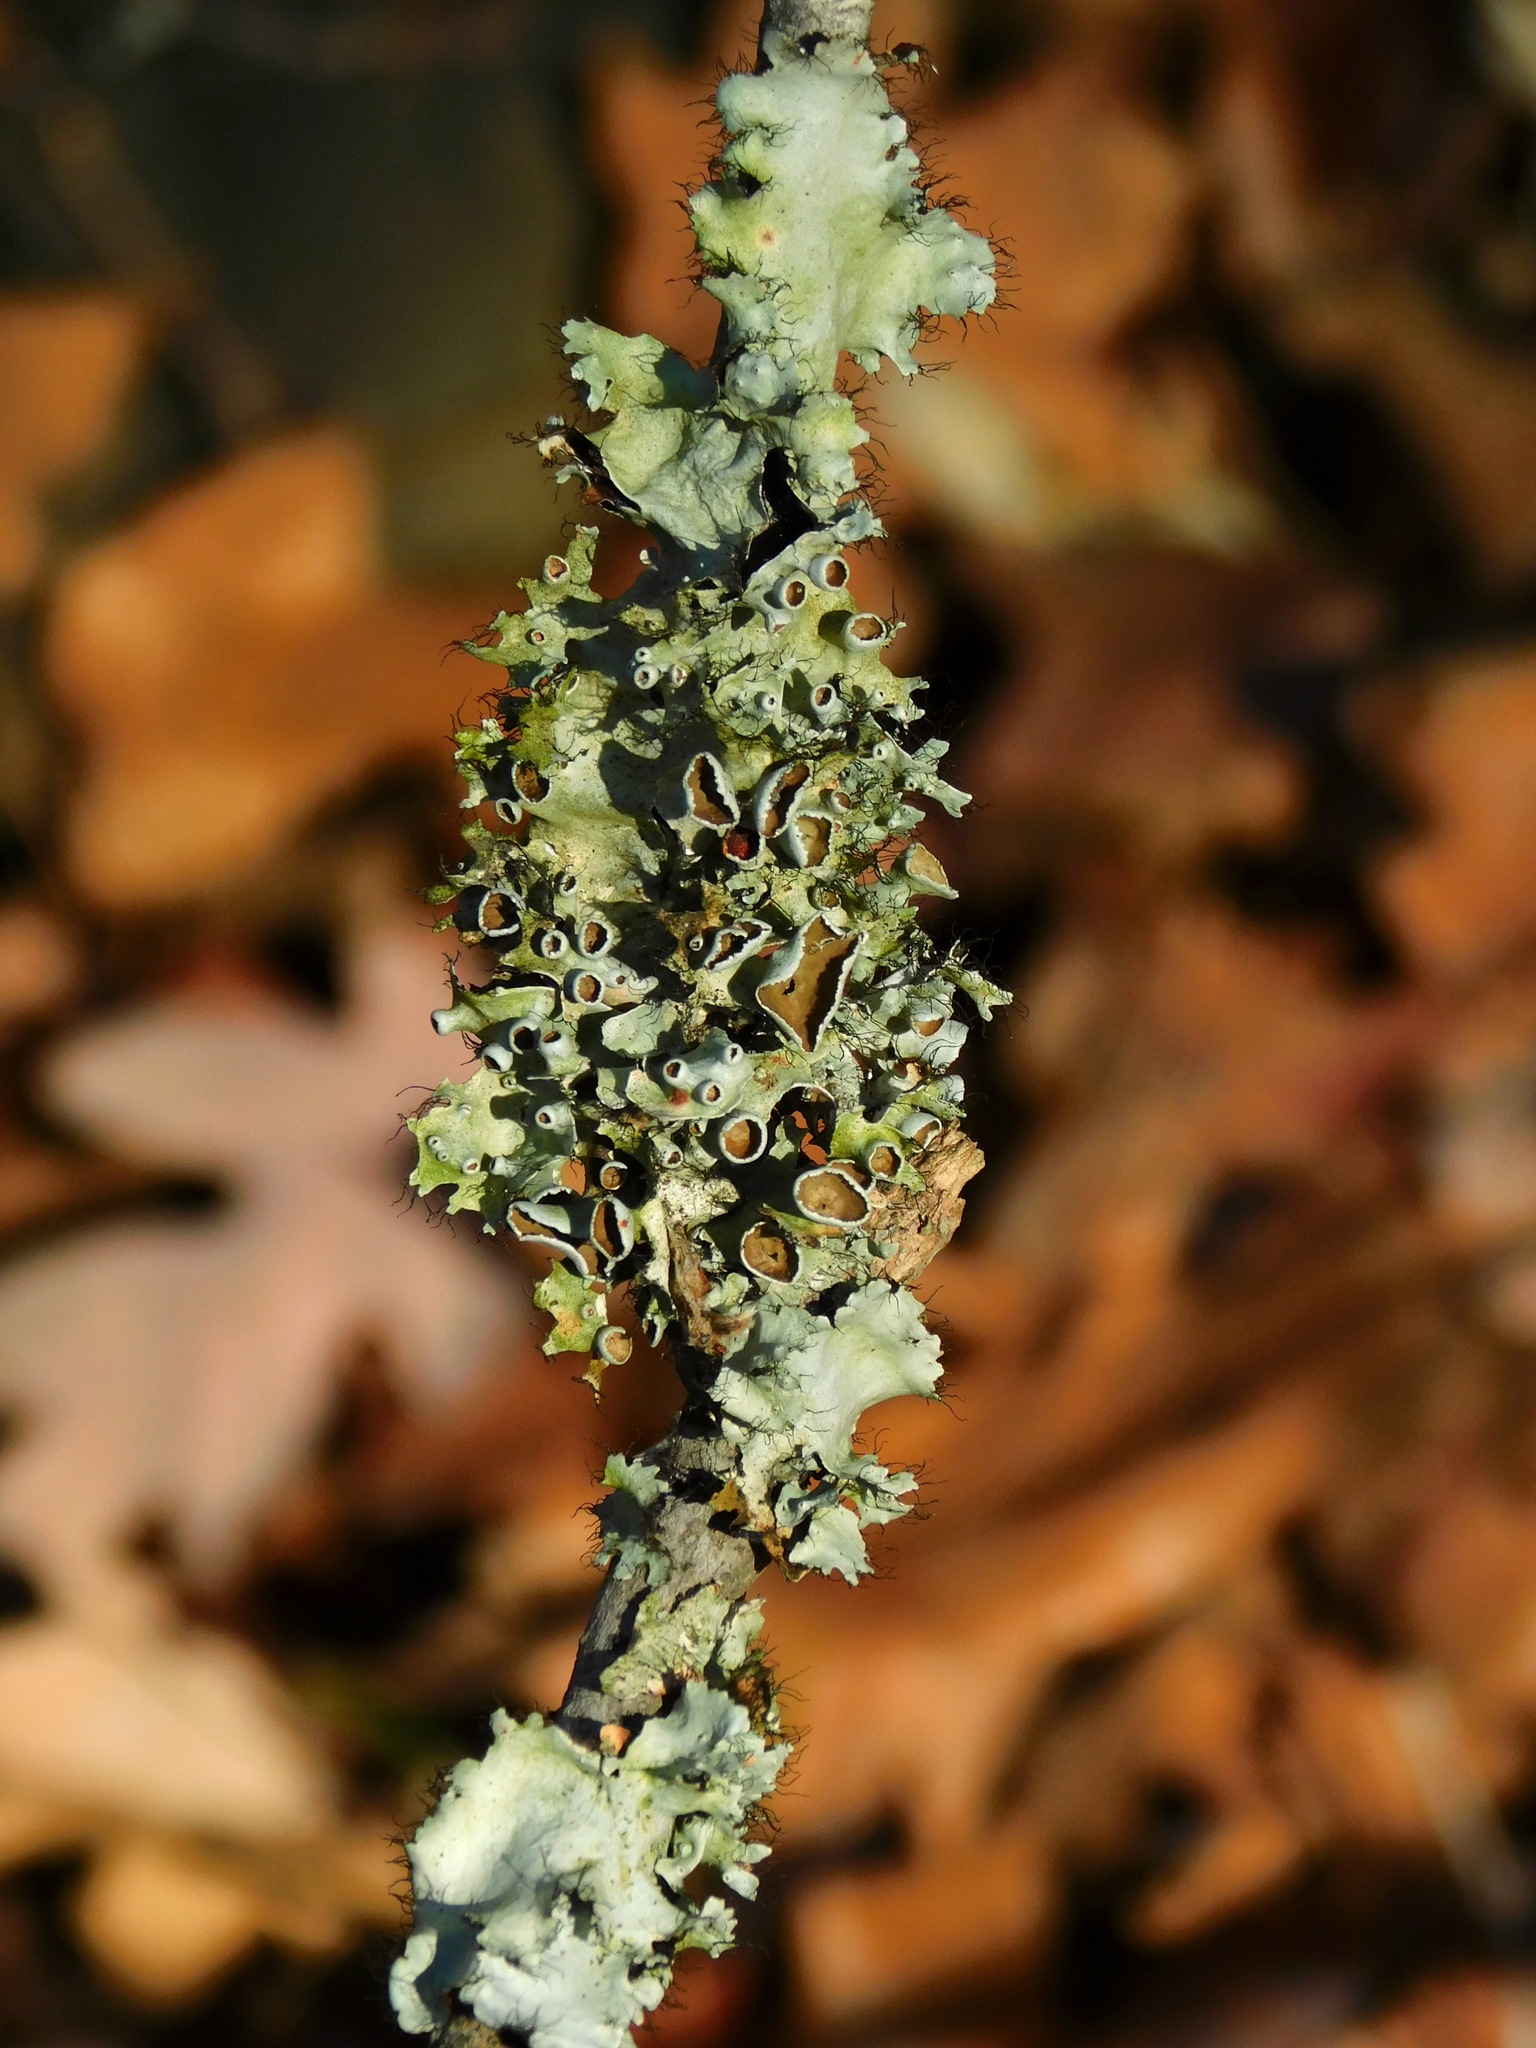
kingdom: Fungi
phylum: Ascomycota
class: Lecanoromycetes
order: Lecanorales
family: Parmeliaceae
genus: Parmotrema
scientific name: Parmotrema perforatum
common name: Perforated ruffle lichen
